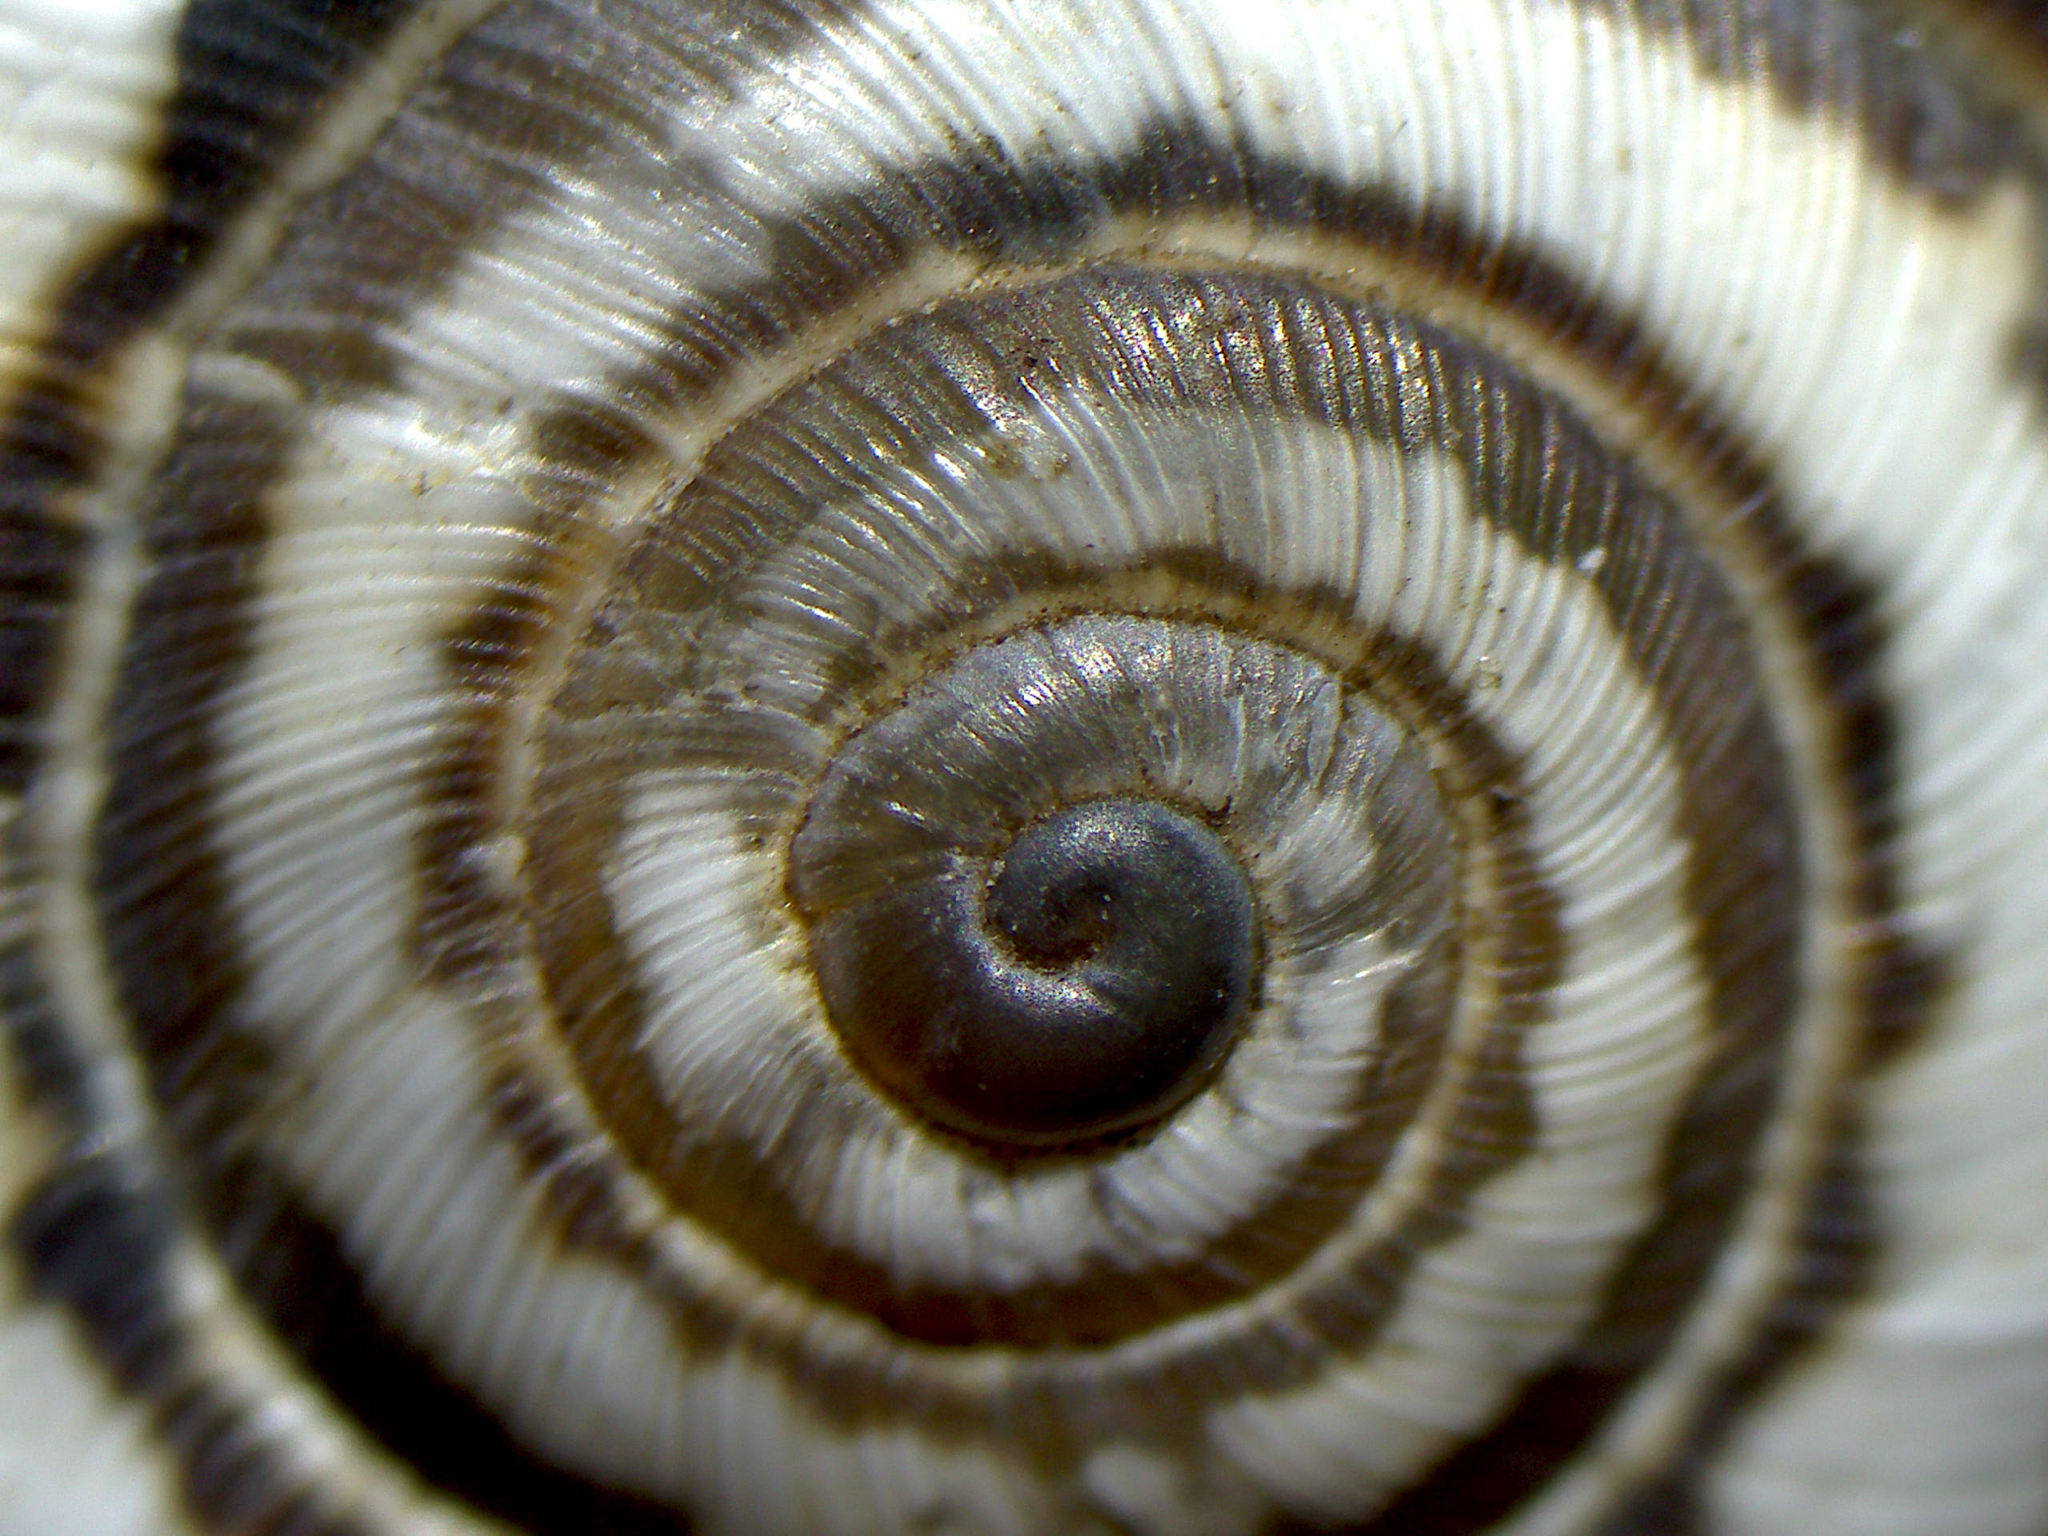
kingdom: Animalia
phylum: Mollusca
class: Gastropoda
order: Stylommatophora
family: Geomitridae
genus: Xerosecta
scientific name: Xerosecta cespitum
